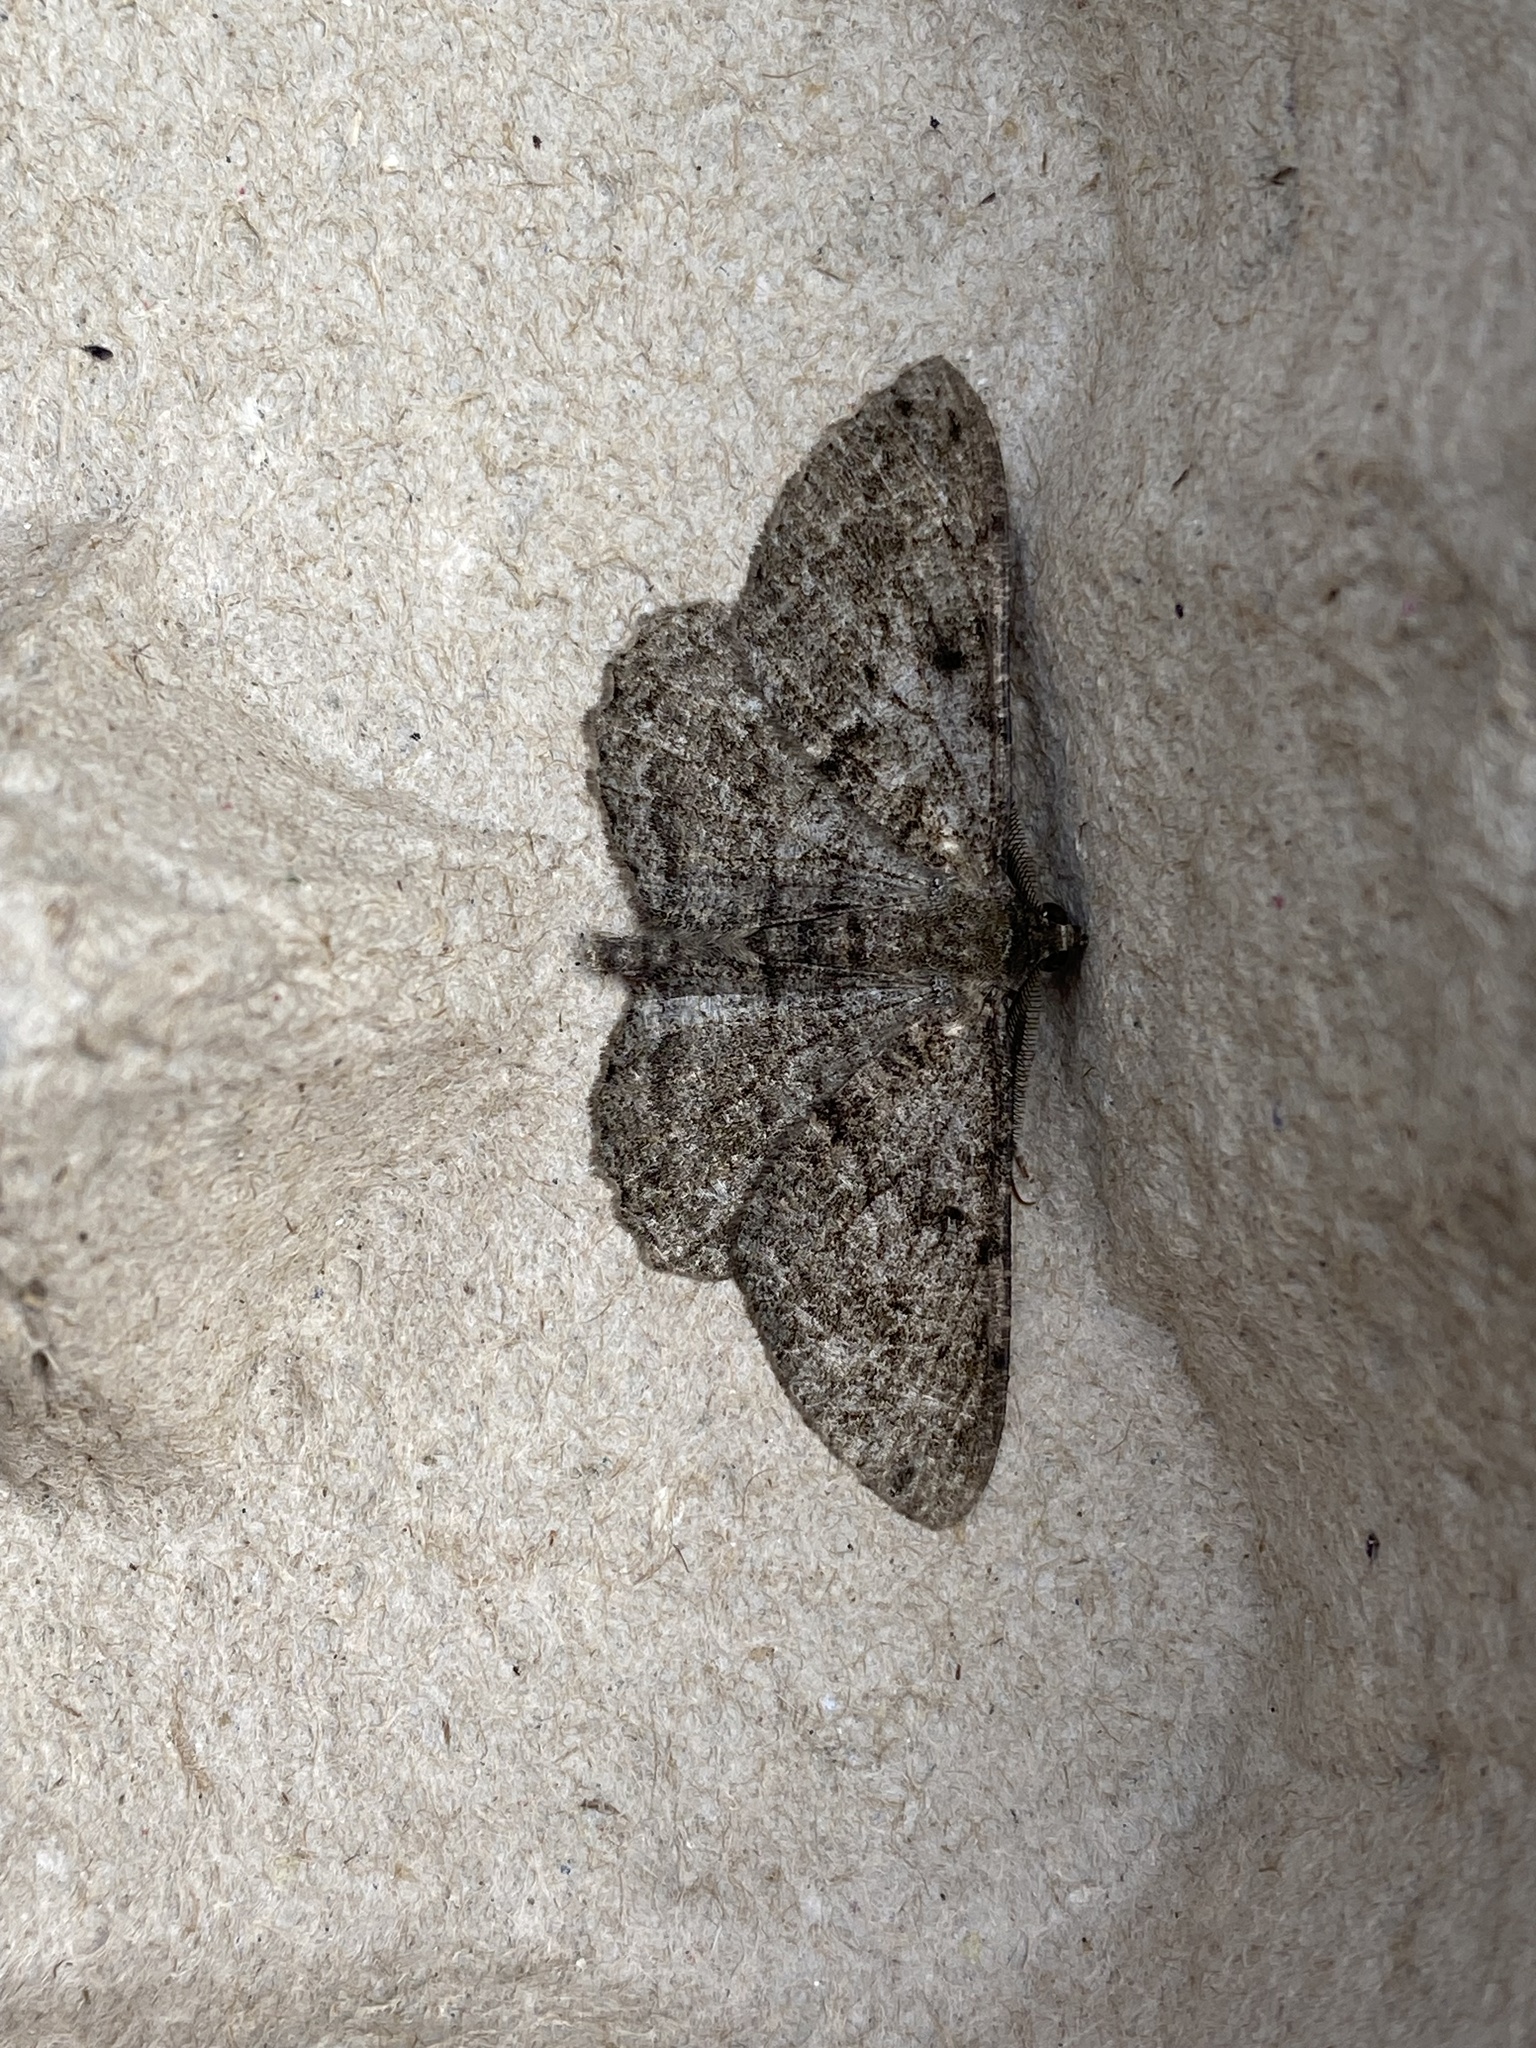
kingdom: Animalia
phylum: Arthropoda
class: Insecta
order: Lepidoptera
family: Geometridae
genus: Peribatodes
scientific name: Peribatodes rhomboidaria
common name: Willow beauty
